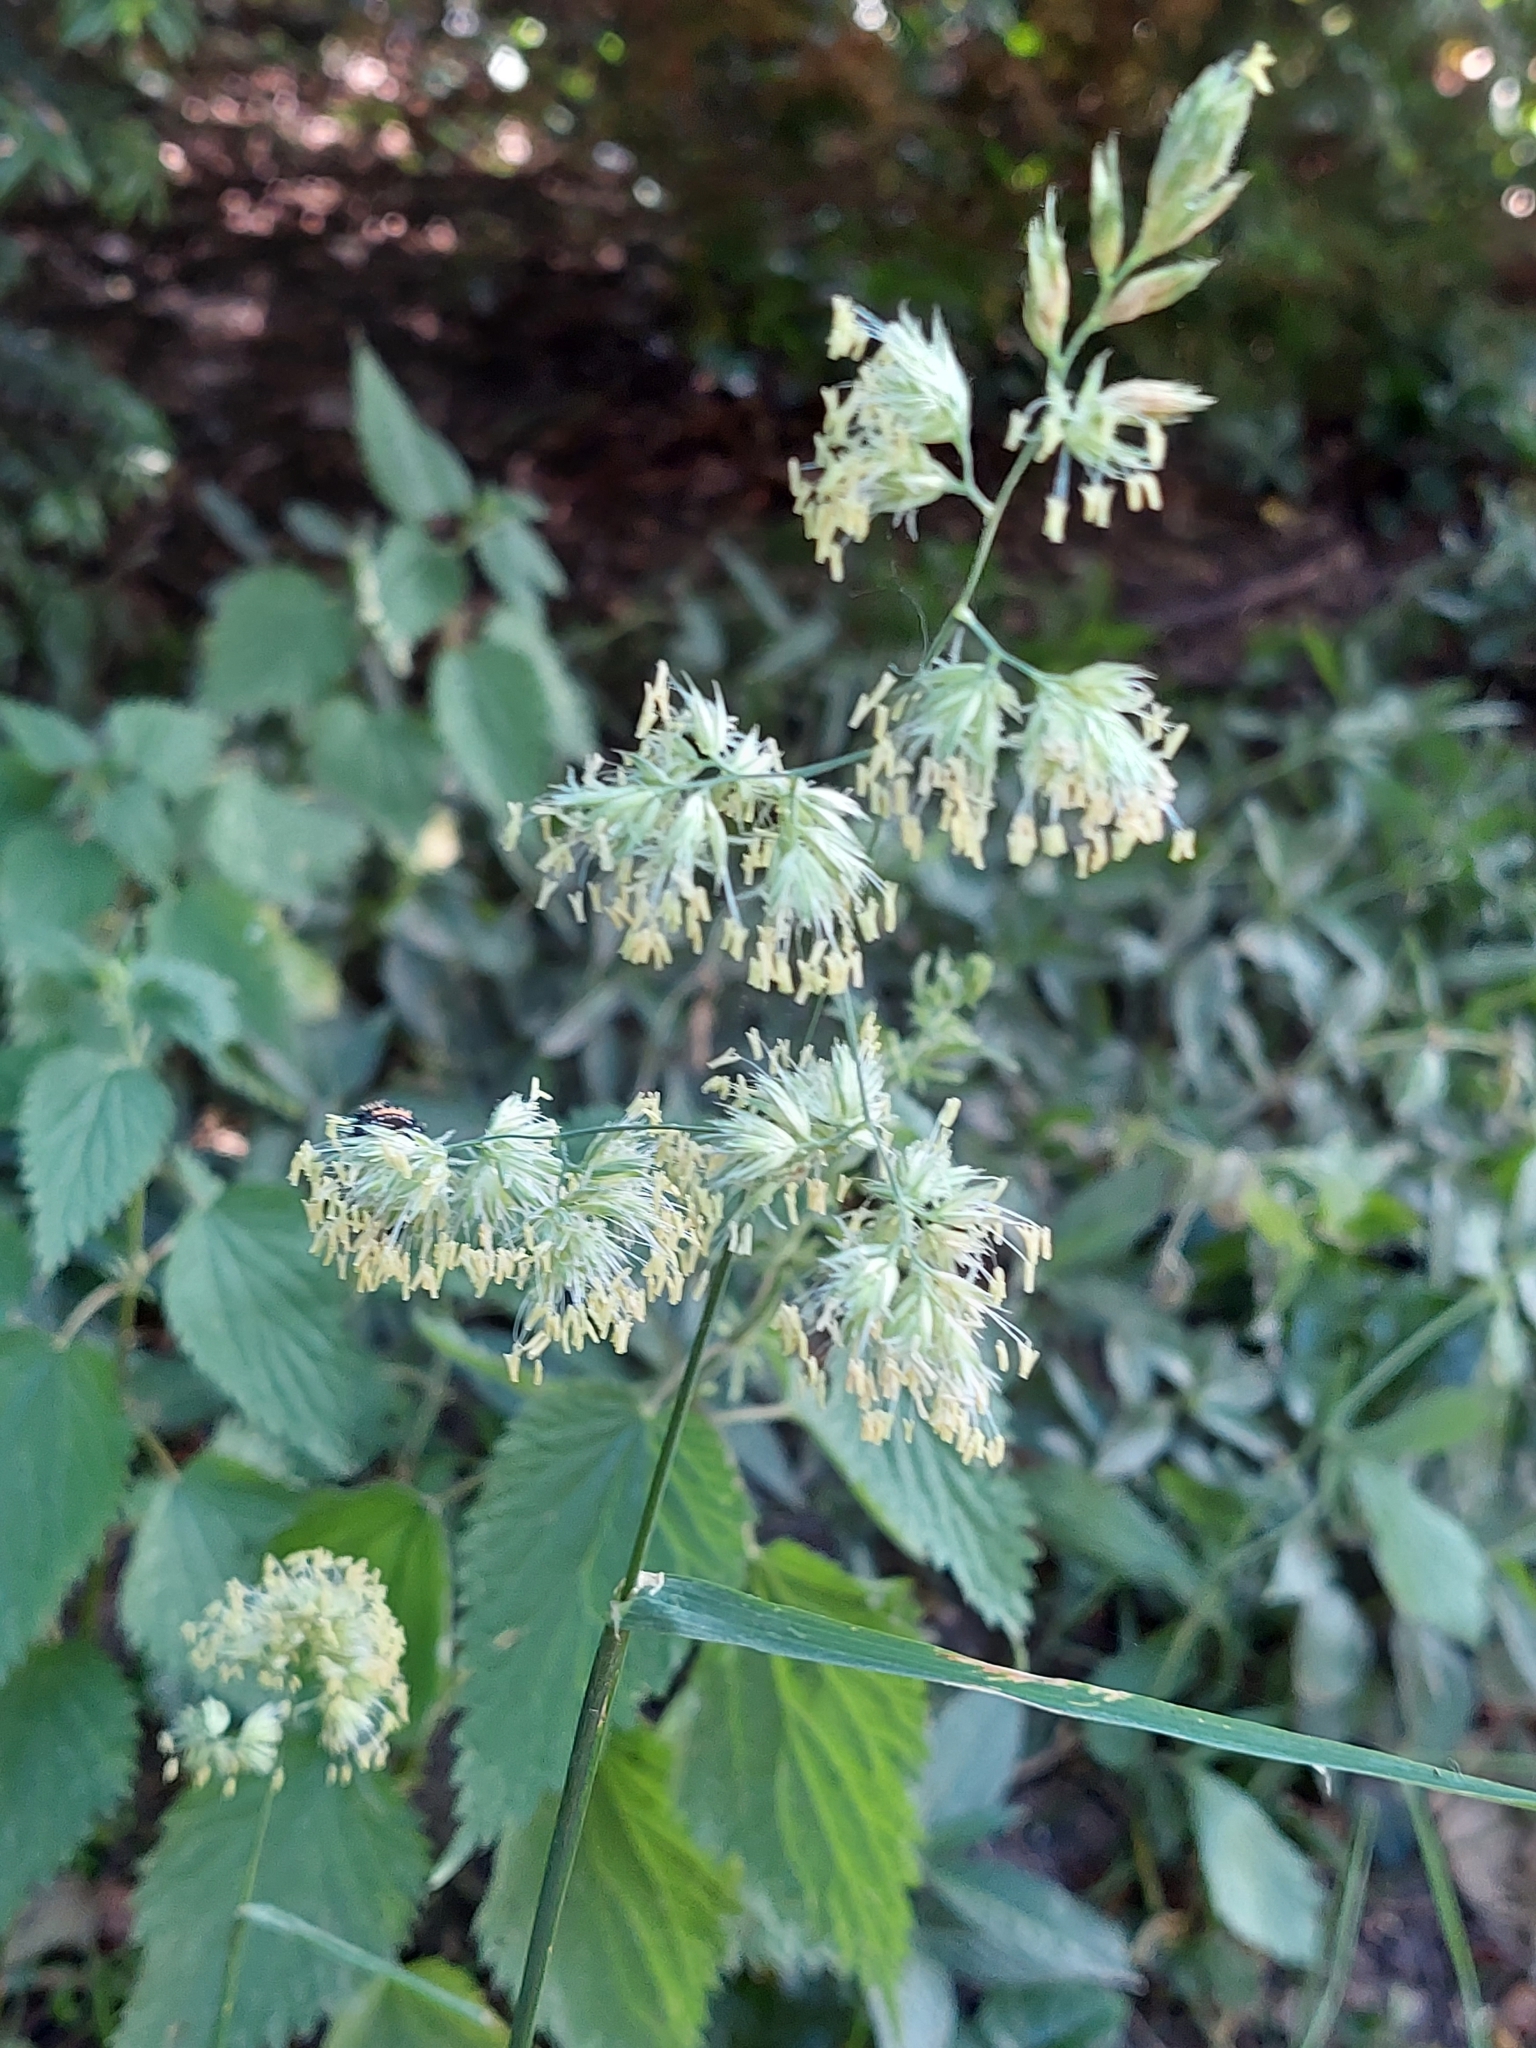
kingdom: Plantae
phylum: Tracheophyta
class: Liliopsida
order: Poales
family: Poaceae
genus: Dactylis
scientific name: Dactylis glomerata
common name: Orchardgrass
